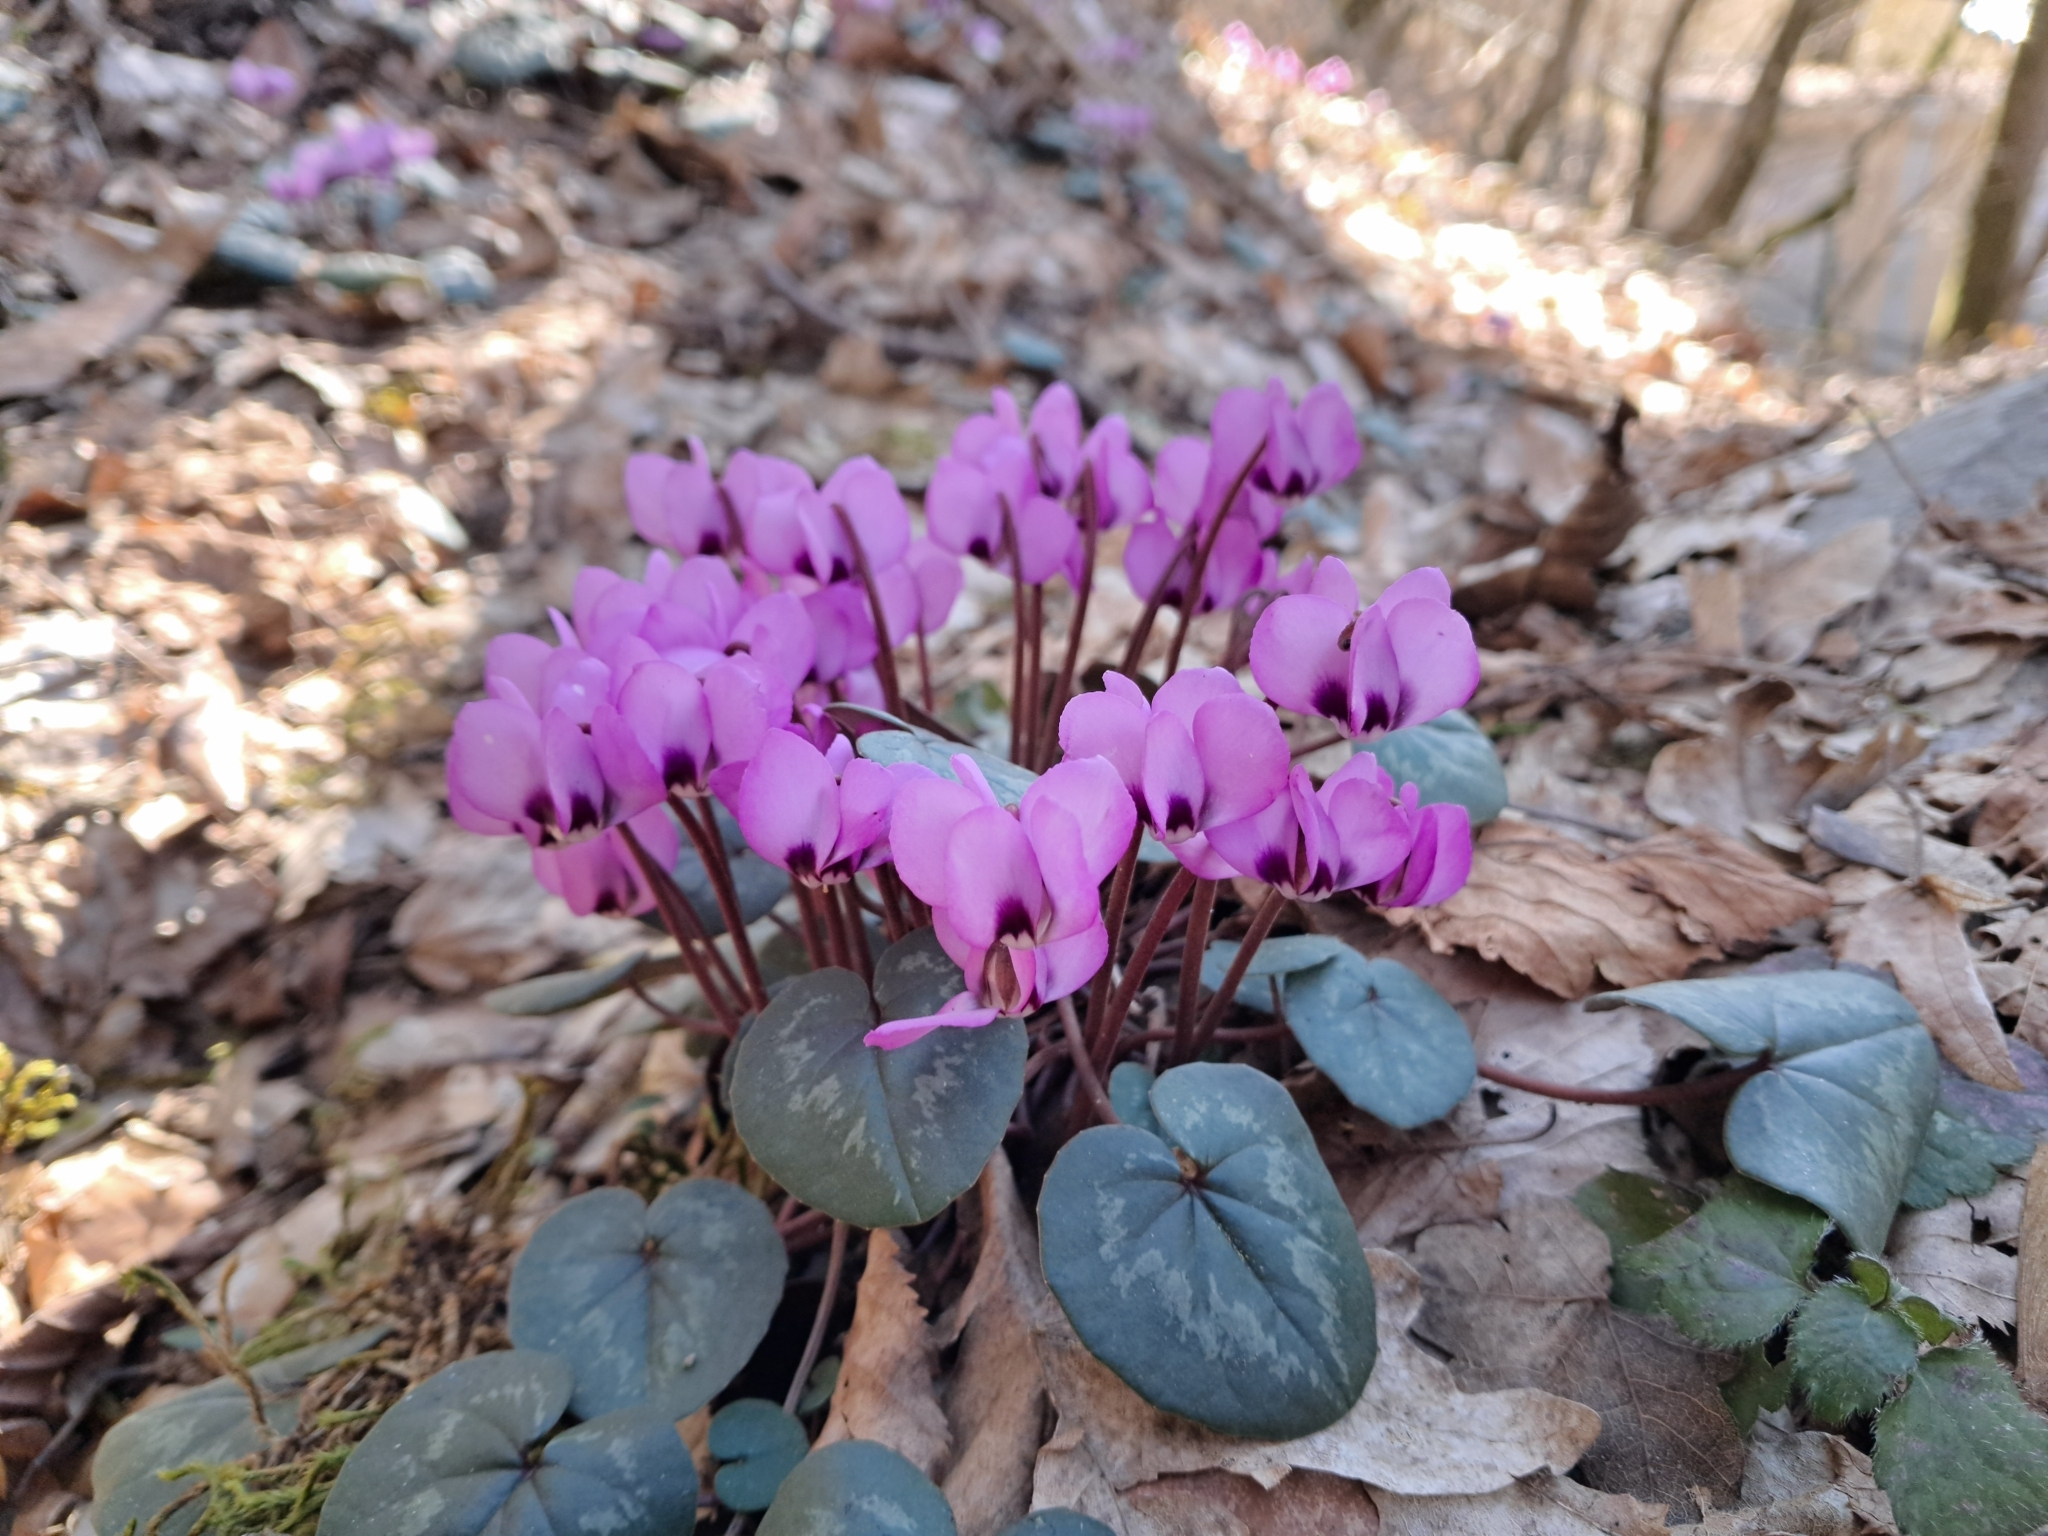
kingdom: Plantae
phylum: Tracheophyta
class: Magnoliopsida
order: Ericales
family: Primulaceae
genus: Cyclamen
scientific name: Cyclamen coum
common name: Eastern sowbread
